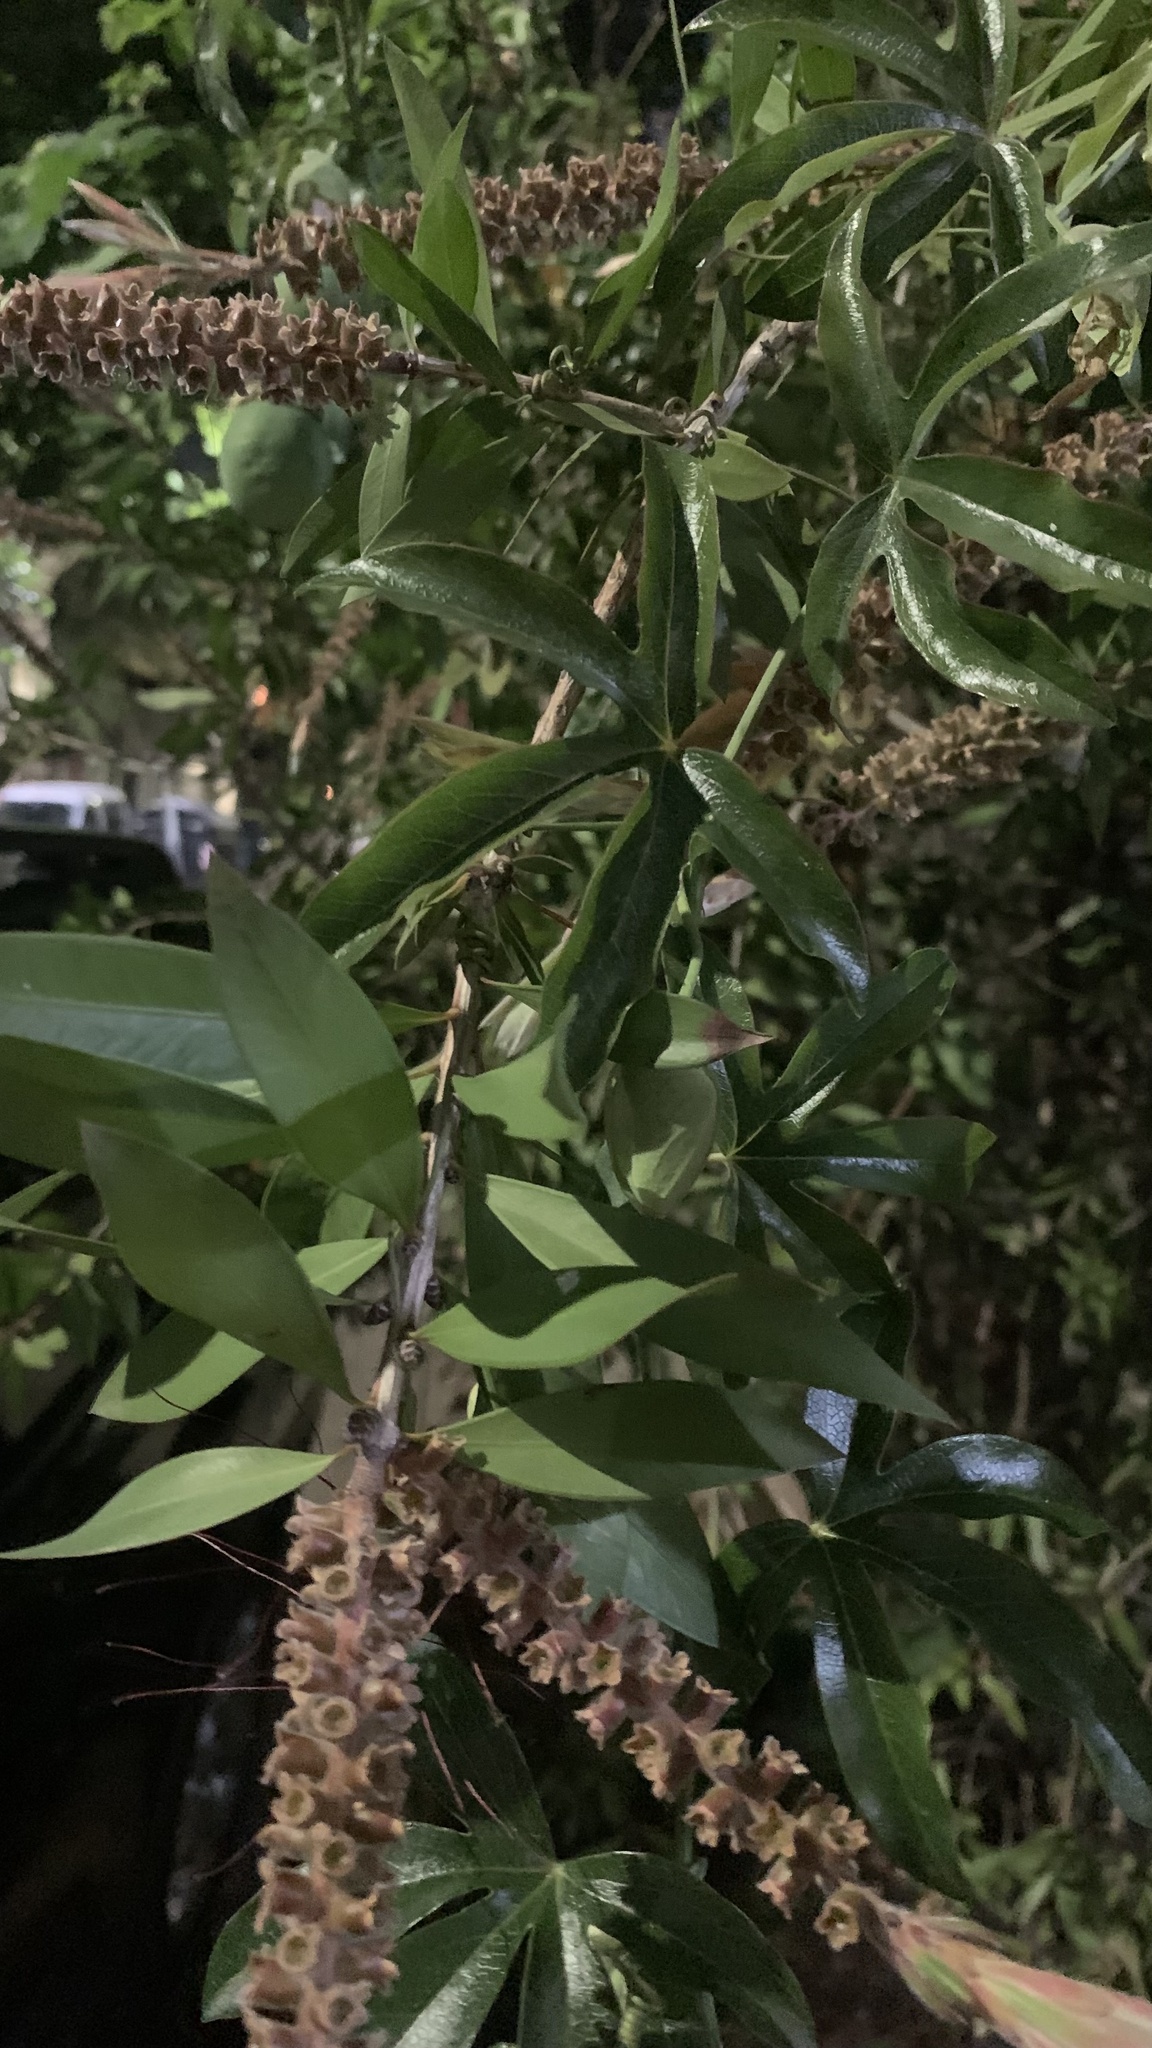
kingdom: Plantae
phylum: Tracheophyta
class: Magnoliopsida
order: Malpighiales
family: Passifloraceae
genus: Passiflora
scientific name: Passiflora caerulea
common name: Blue passionflower
